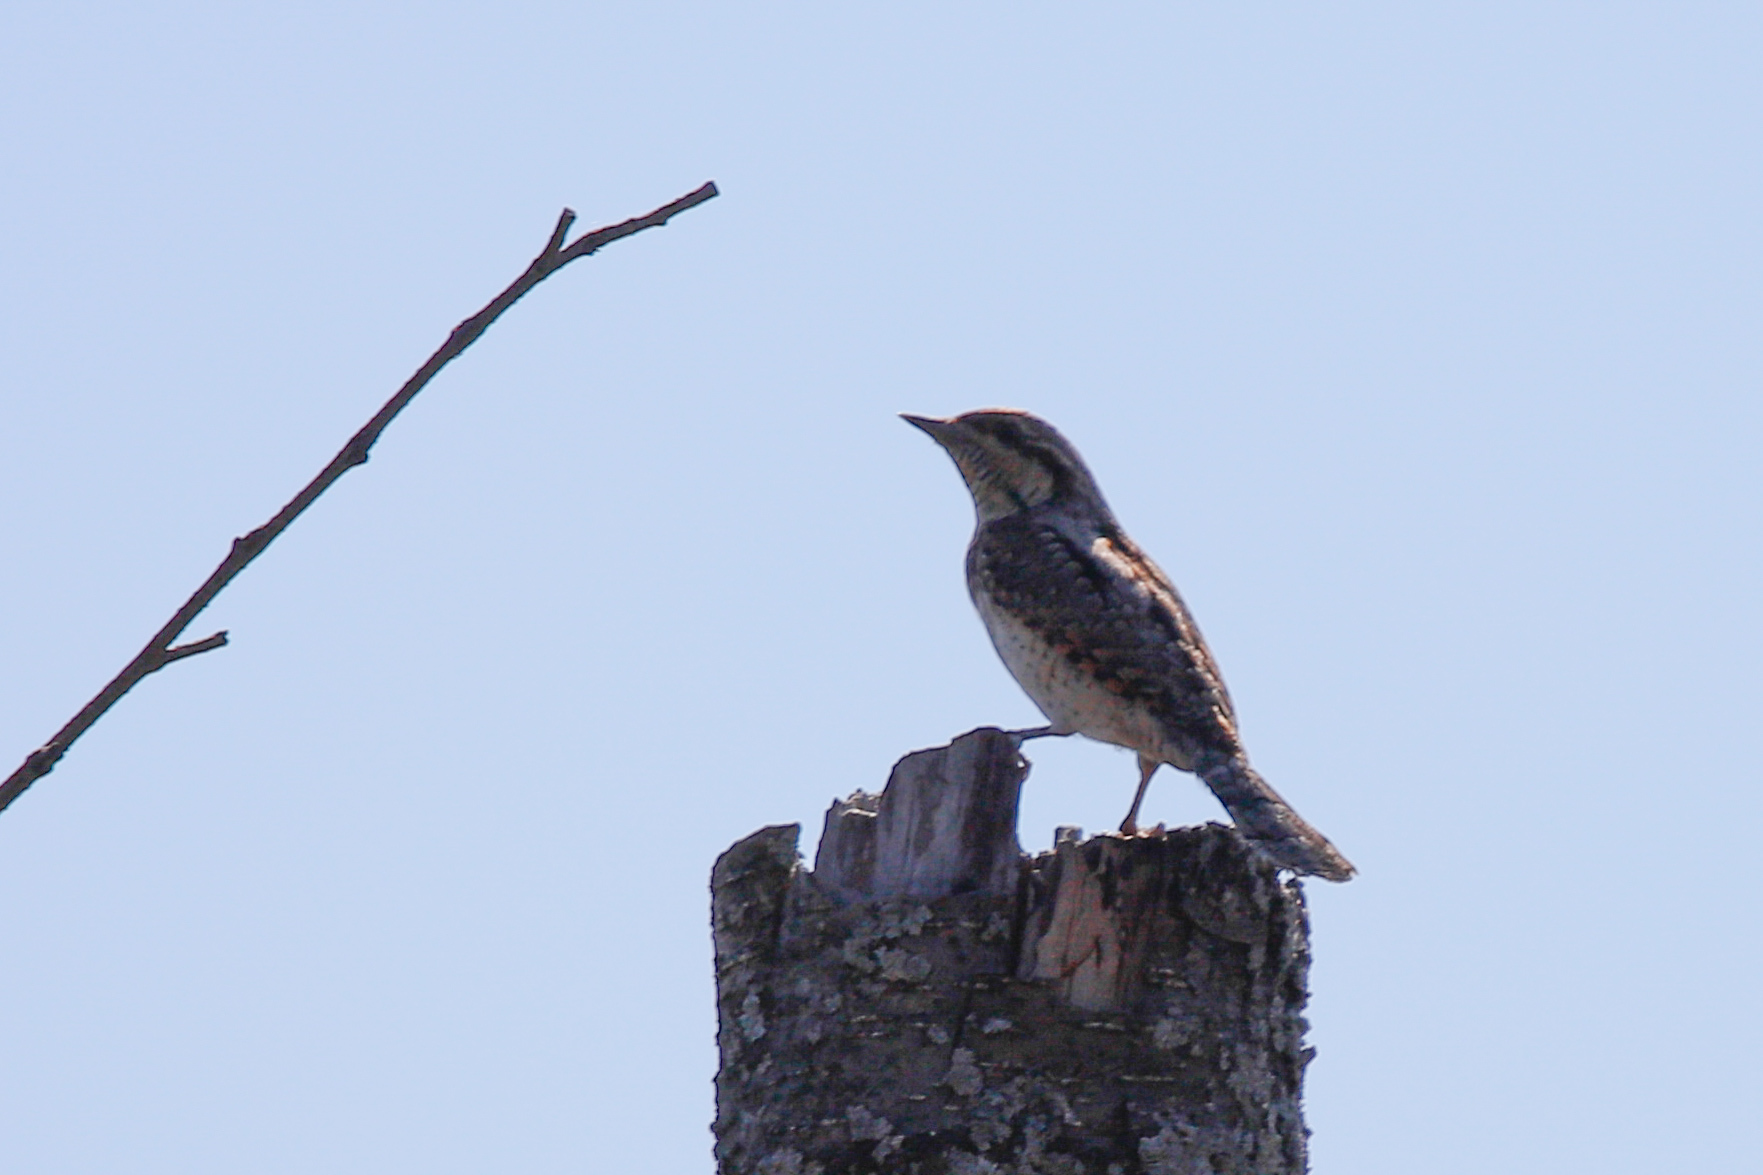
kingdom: Animalia
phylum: Chordata
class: Aves
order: Piciformes
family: Picidae
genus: Jynx
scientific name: Jynx torquilla
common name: Eurasian wryneck
